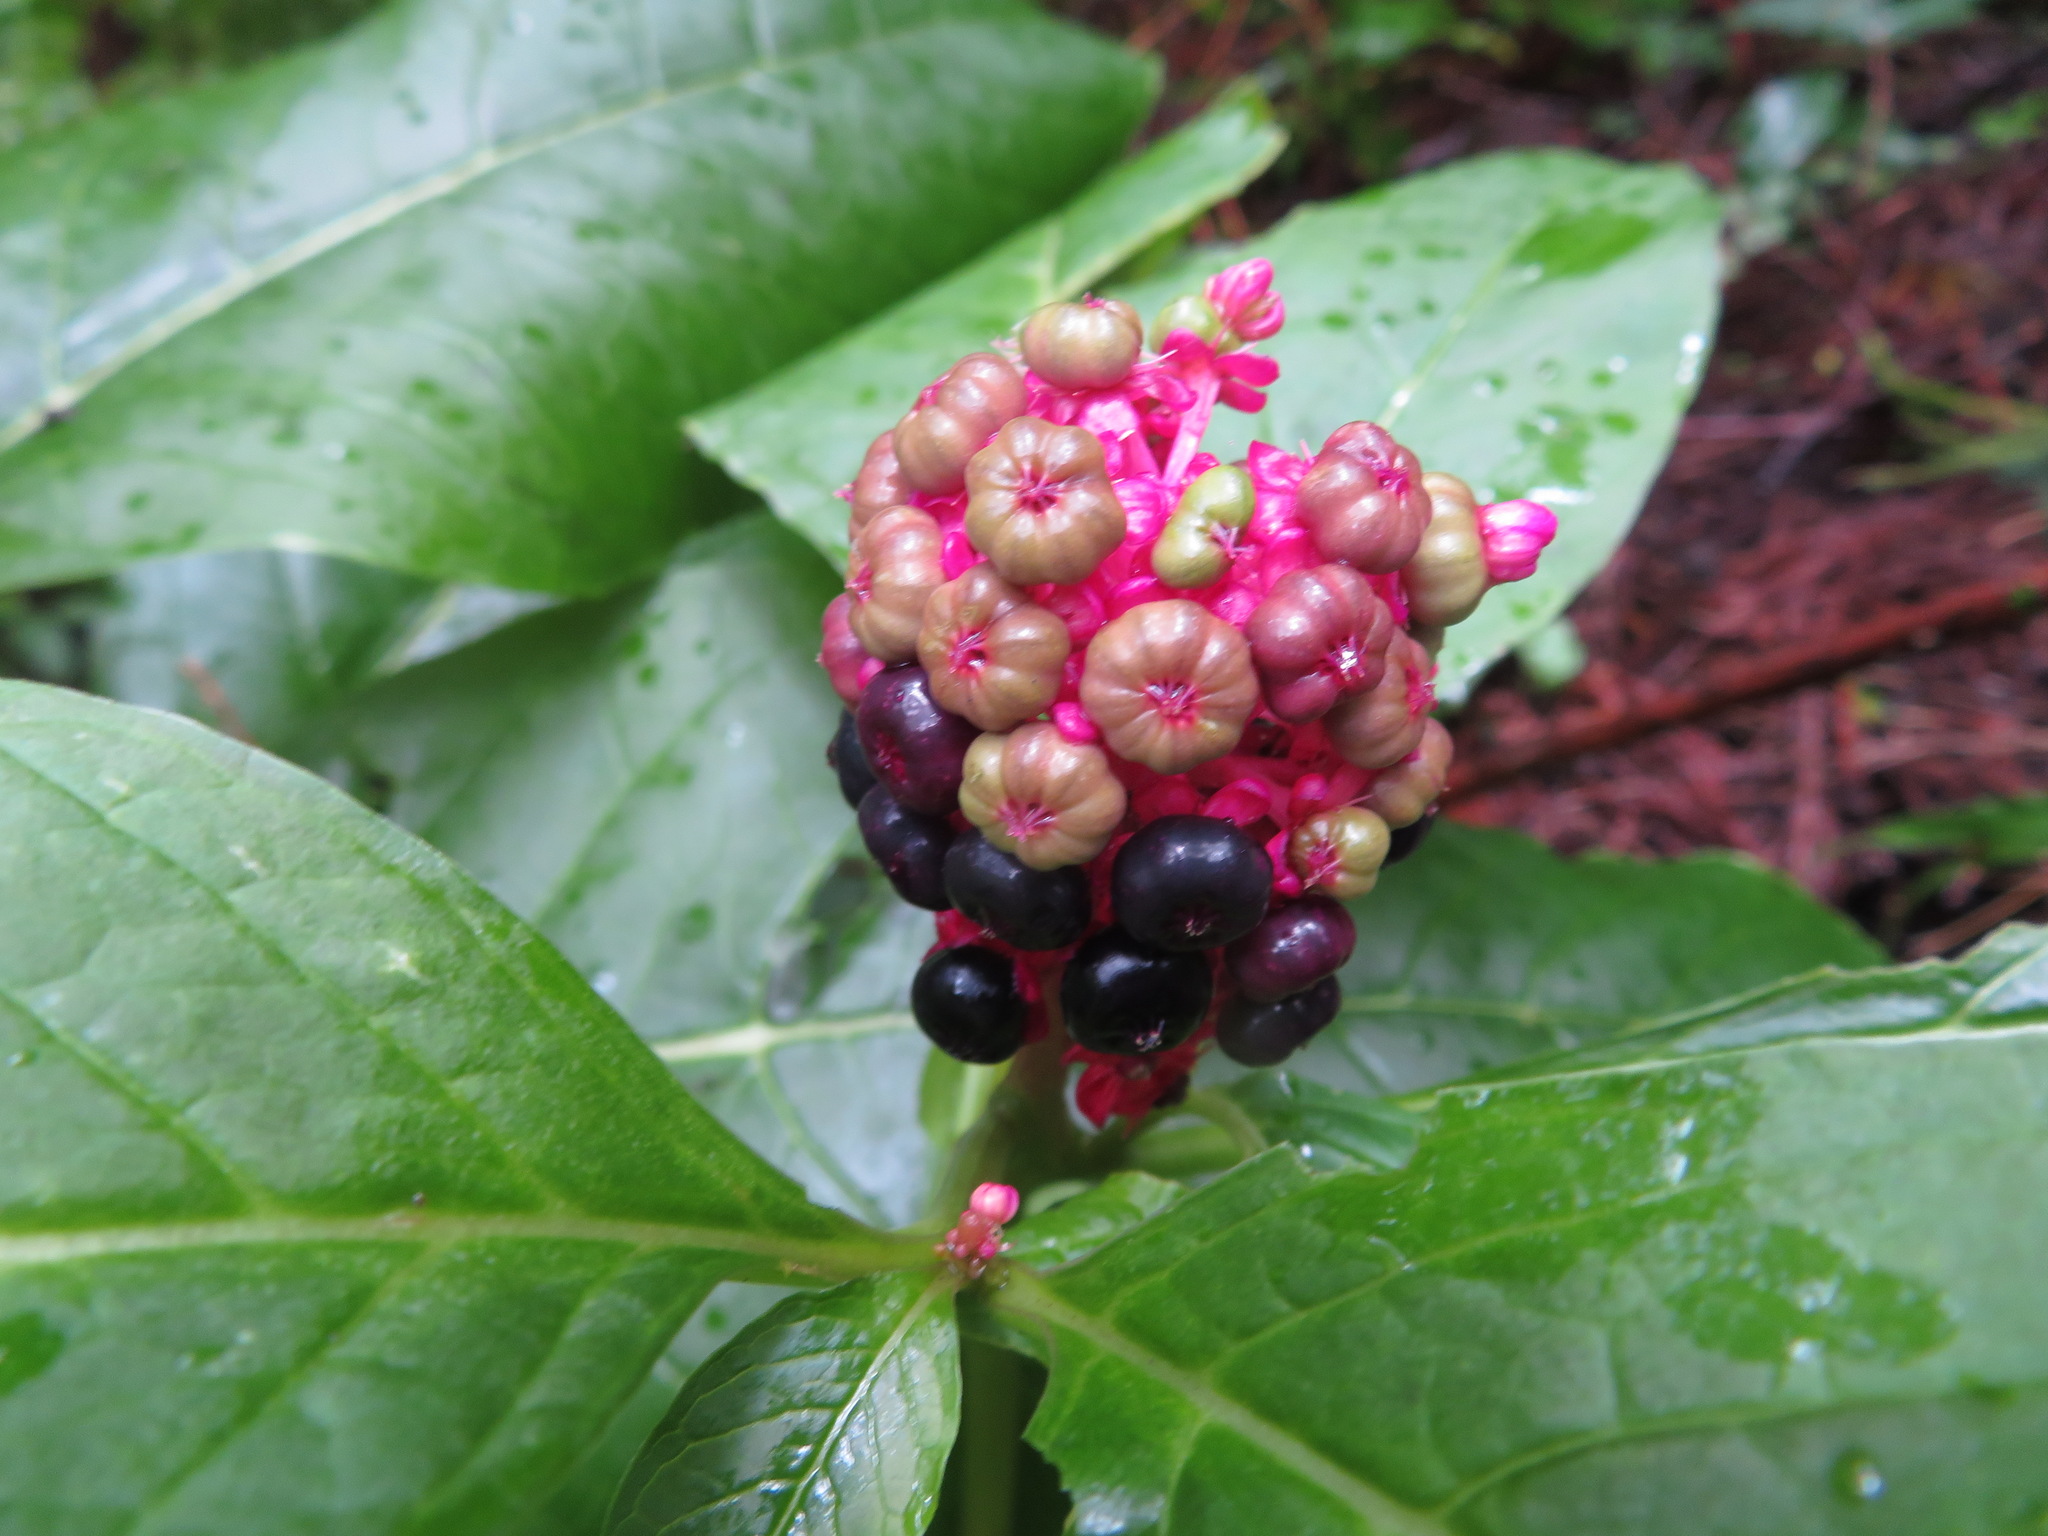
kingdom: Plantae
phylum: Tracheophyta
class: Magnoliopsida
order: Caryophyllales
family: Phytolaccaceae
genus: Phytolacca
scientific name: Phytolacca japonica
